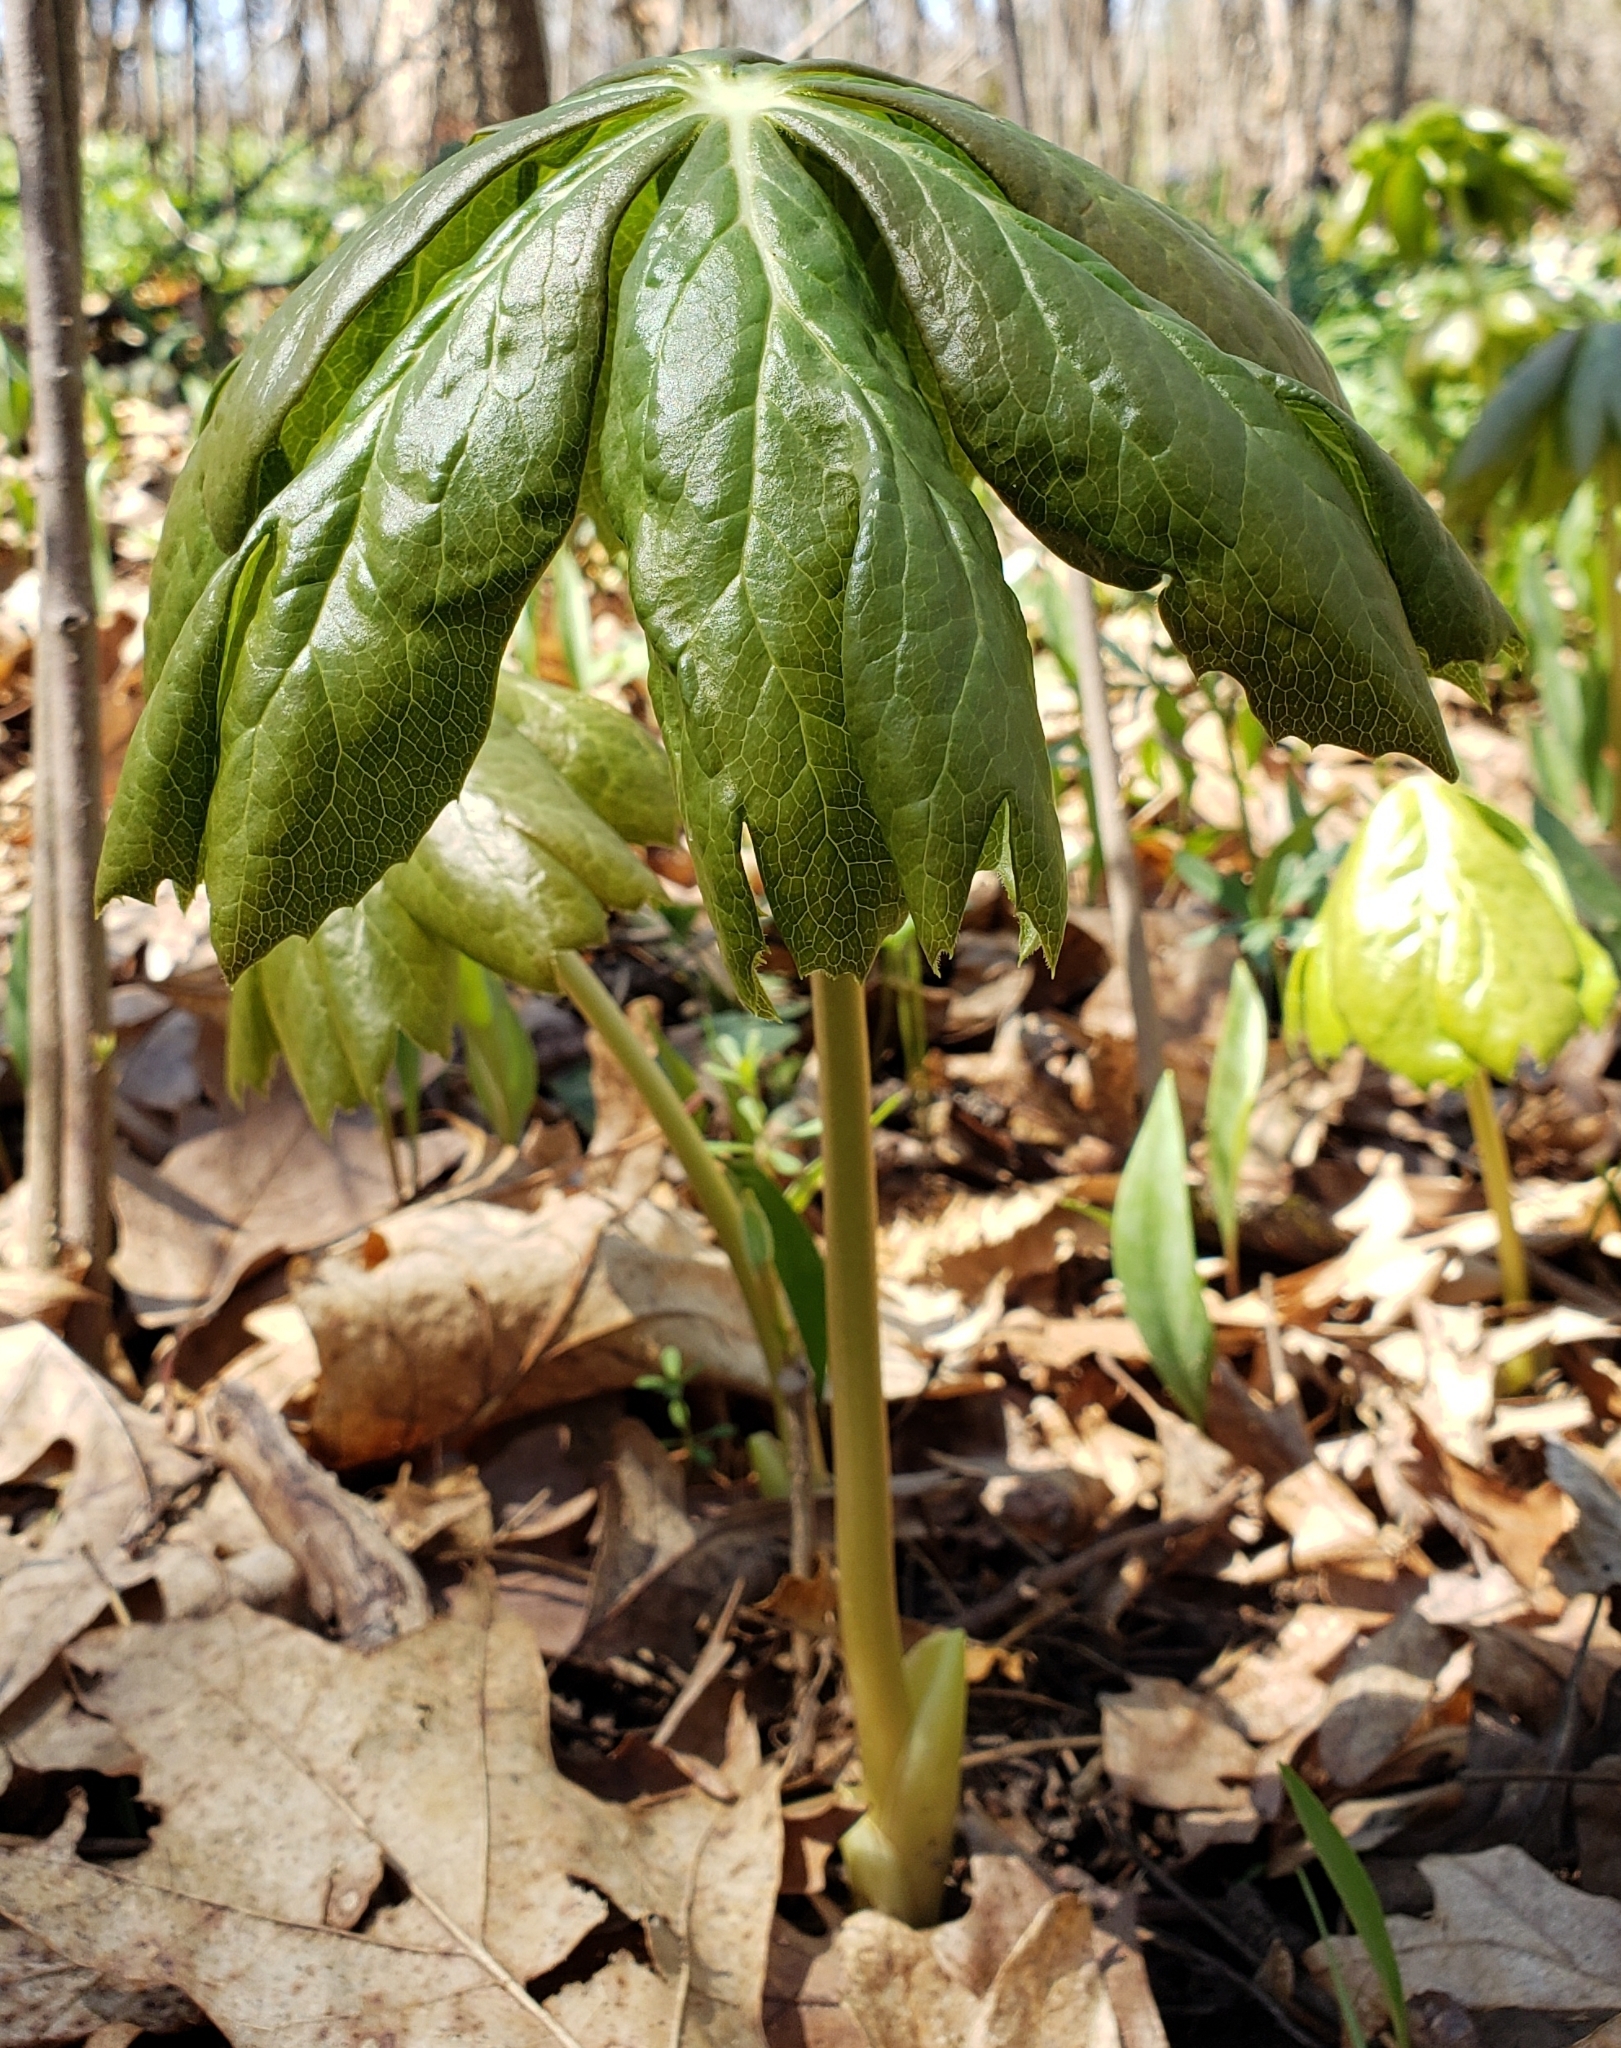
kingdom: Plantae
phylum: Tracheophyta
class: Magnoliopsida
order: Ranunculales
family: Berberidaceae
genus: Podophyllum
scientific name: Podophyllum peltatum
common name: Wild mandrake
